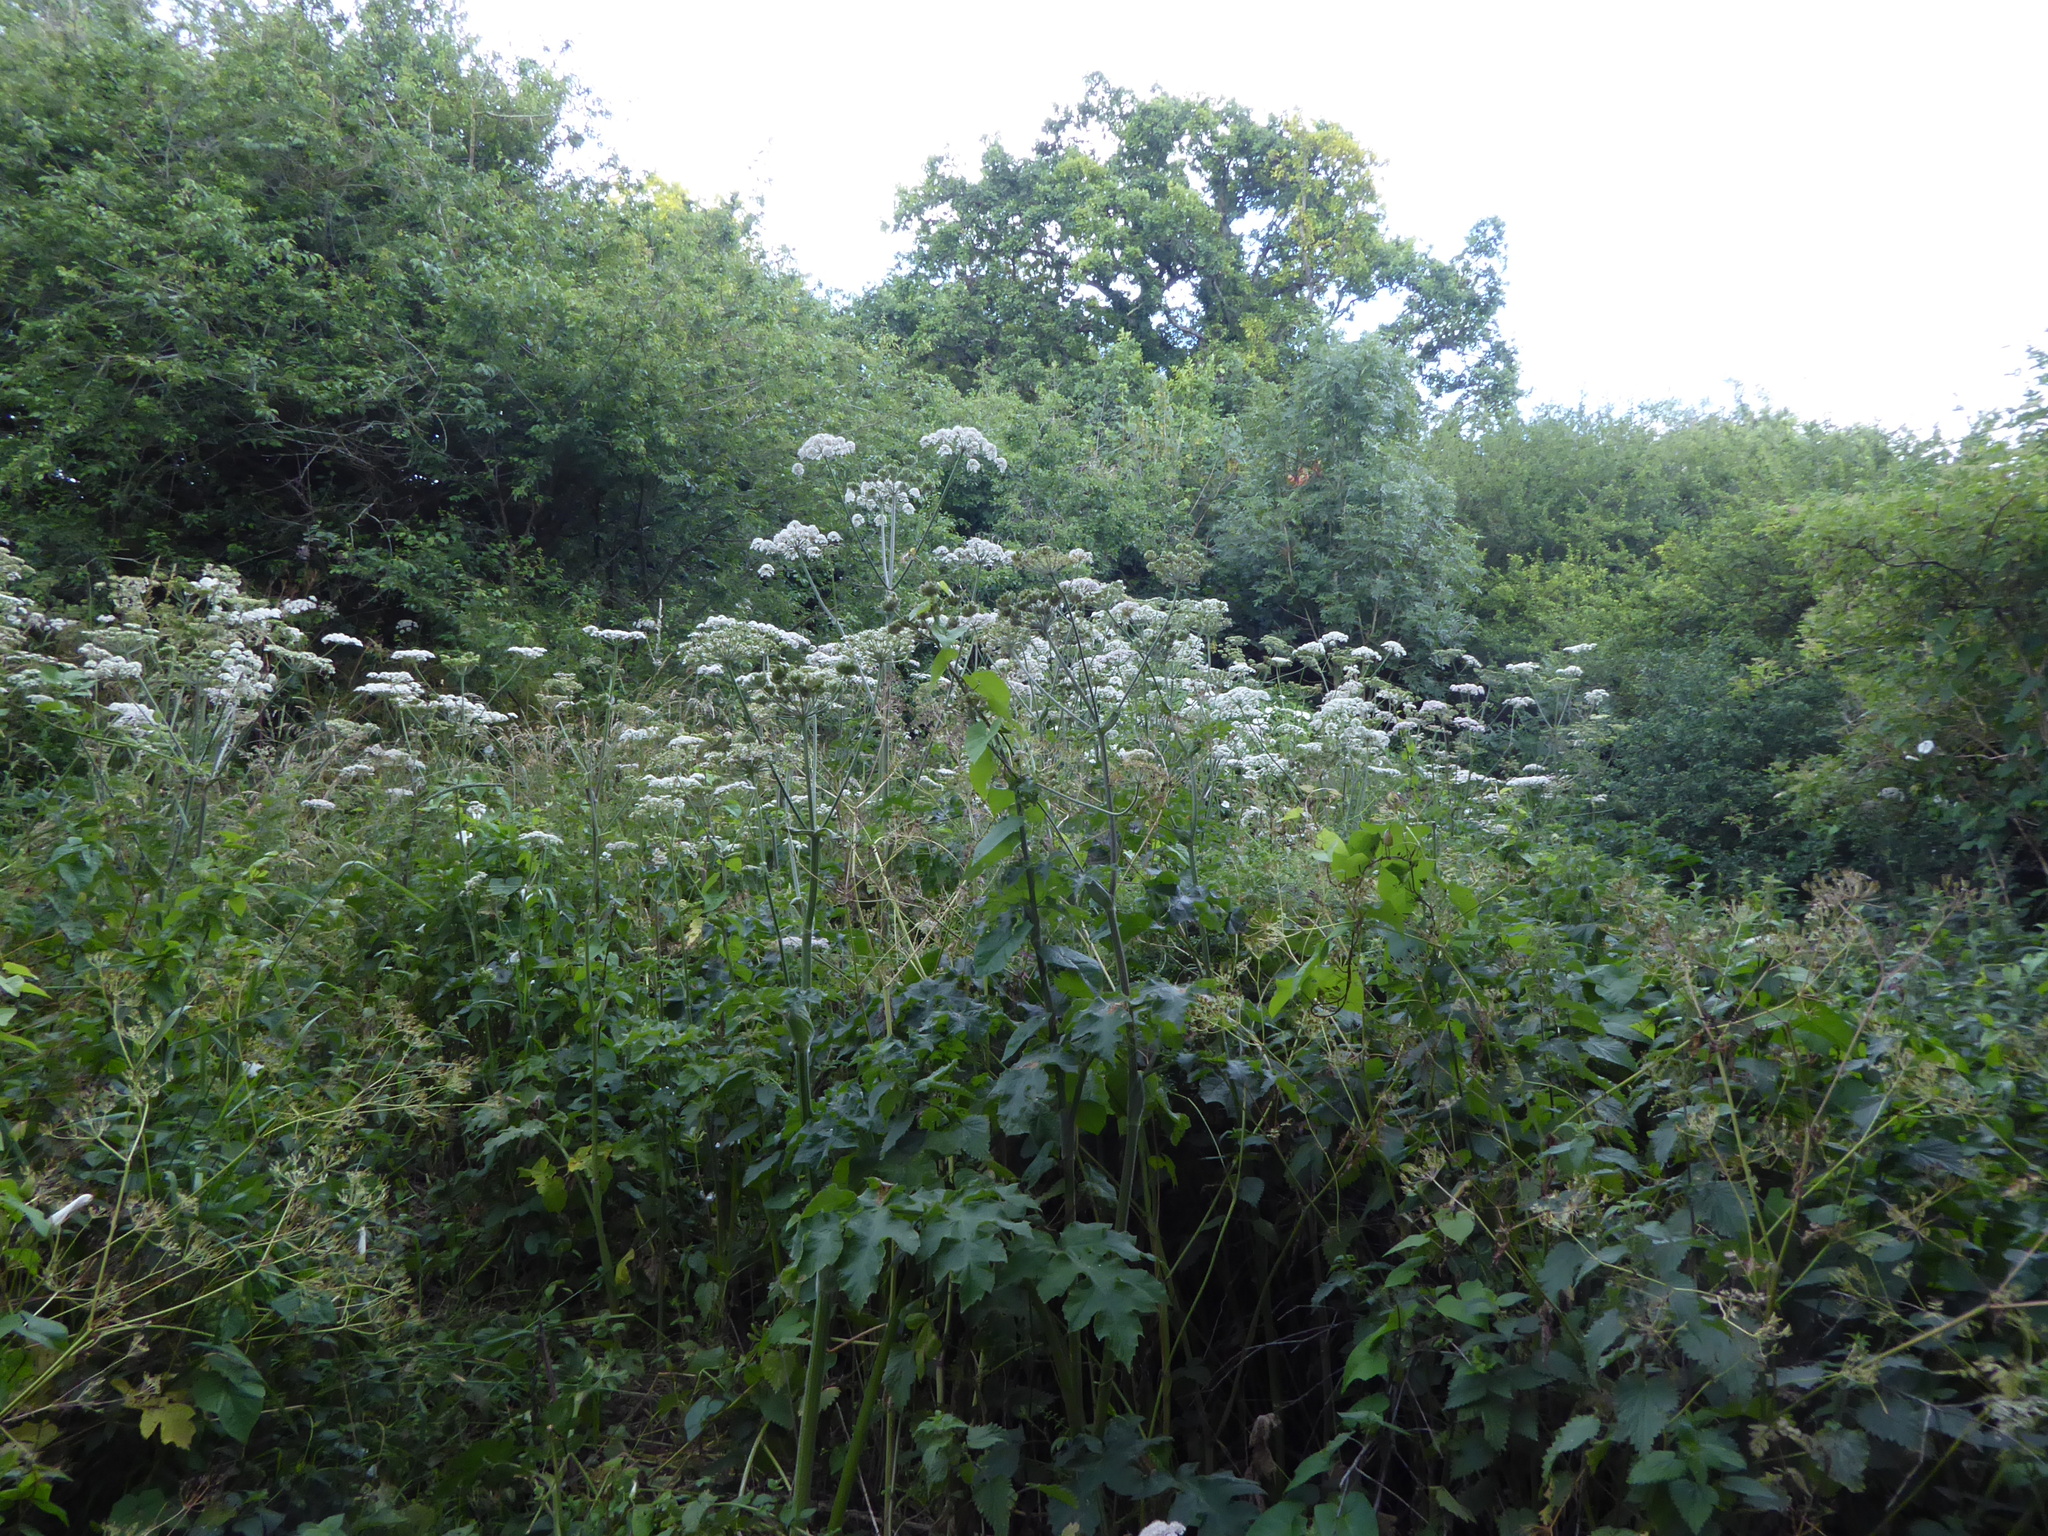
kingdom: Plantae
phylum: Tracheophyta
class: Magnoliopsida
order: Apiales
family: Apiaceae
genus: Heracleum
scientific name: Heracleum sphondylium
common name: Hogweed
